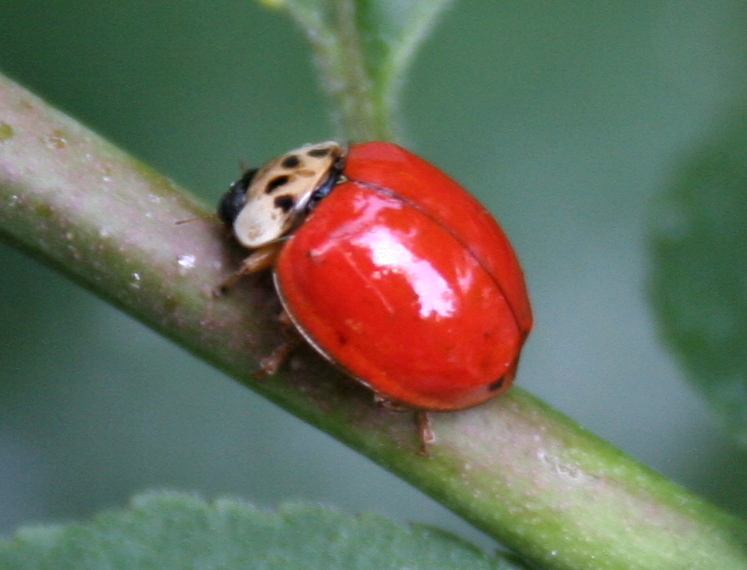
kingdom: Animalia
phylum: Arthropoda
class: Insecta
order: Coleoptera
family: Coccinellidae
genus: Harmonia
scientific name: Harmonia axyridis
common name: Harlequin ladybird
